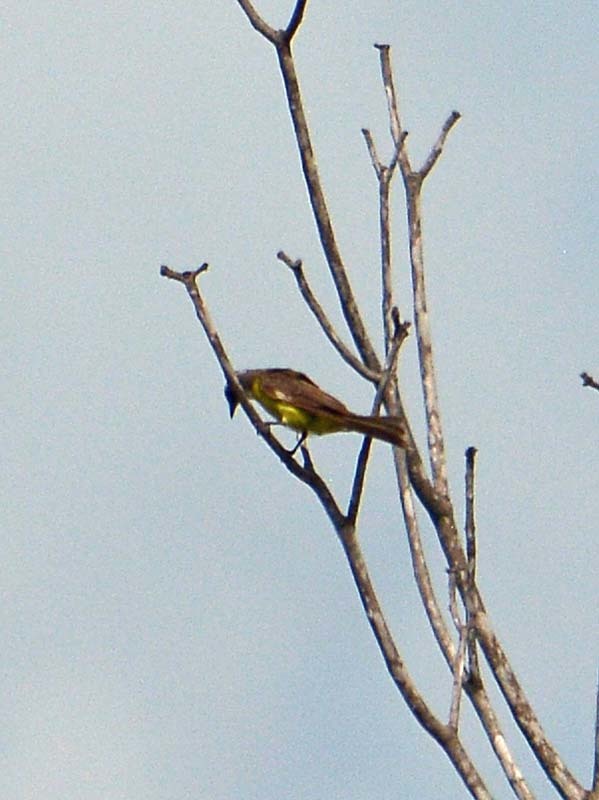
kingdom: Animalia
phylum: Chordata
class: Aves
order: Passeriformes
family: Tyrannidae
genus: Myiozetetes
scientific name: Myiozetetes similis
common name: Social flycatcher
